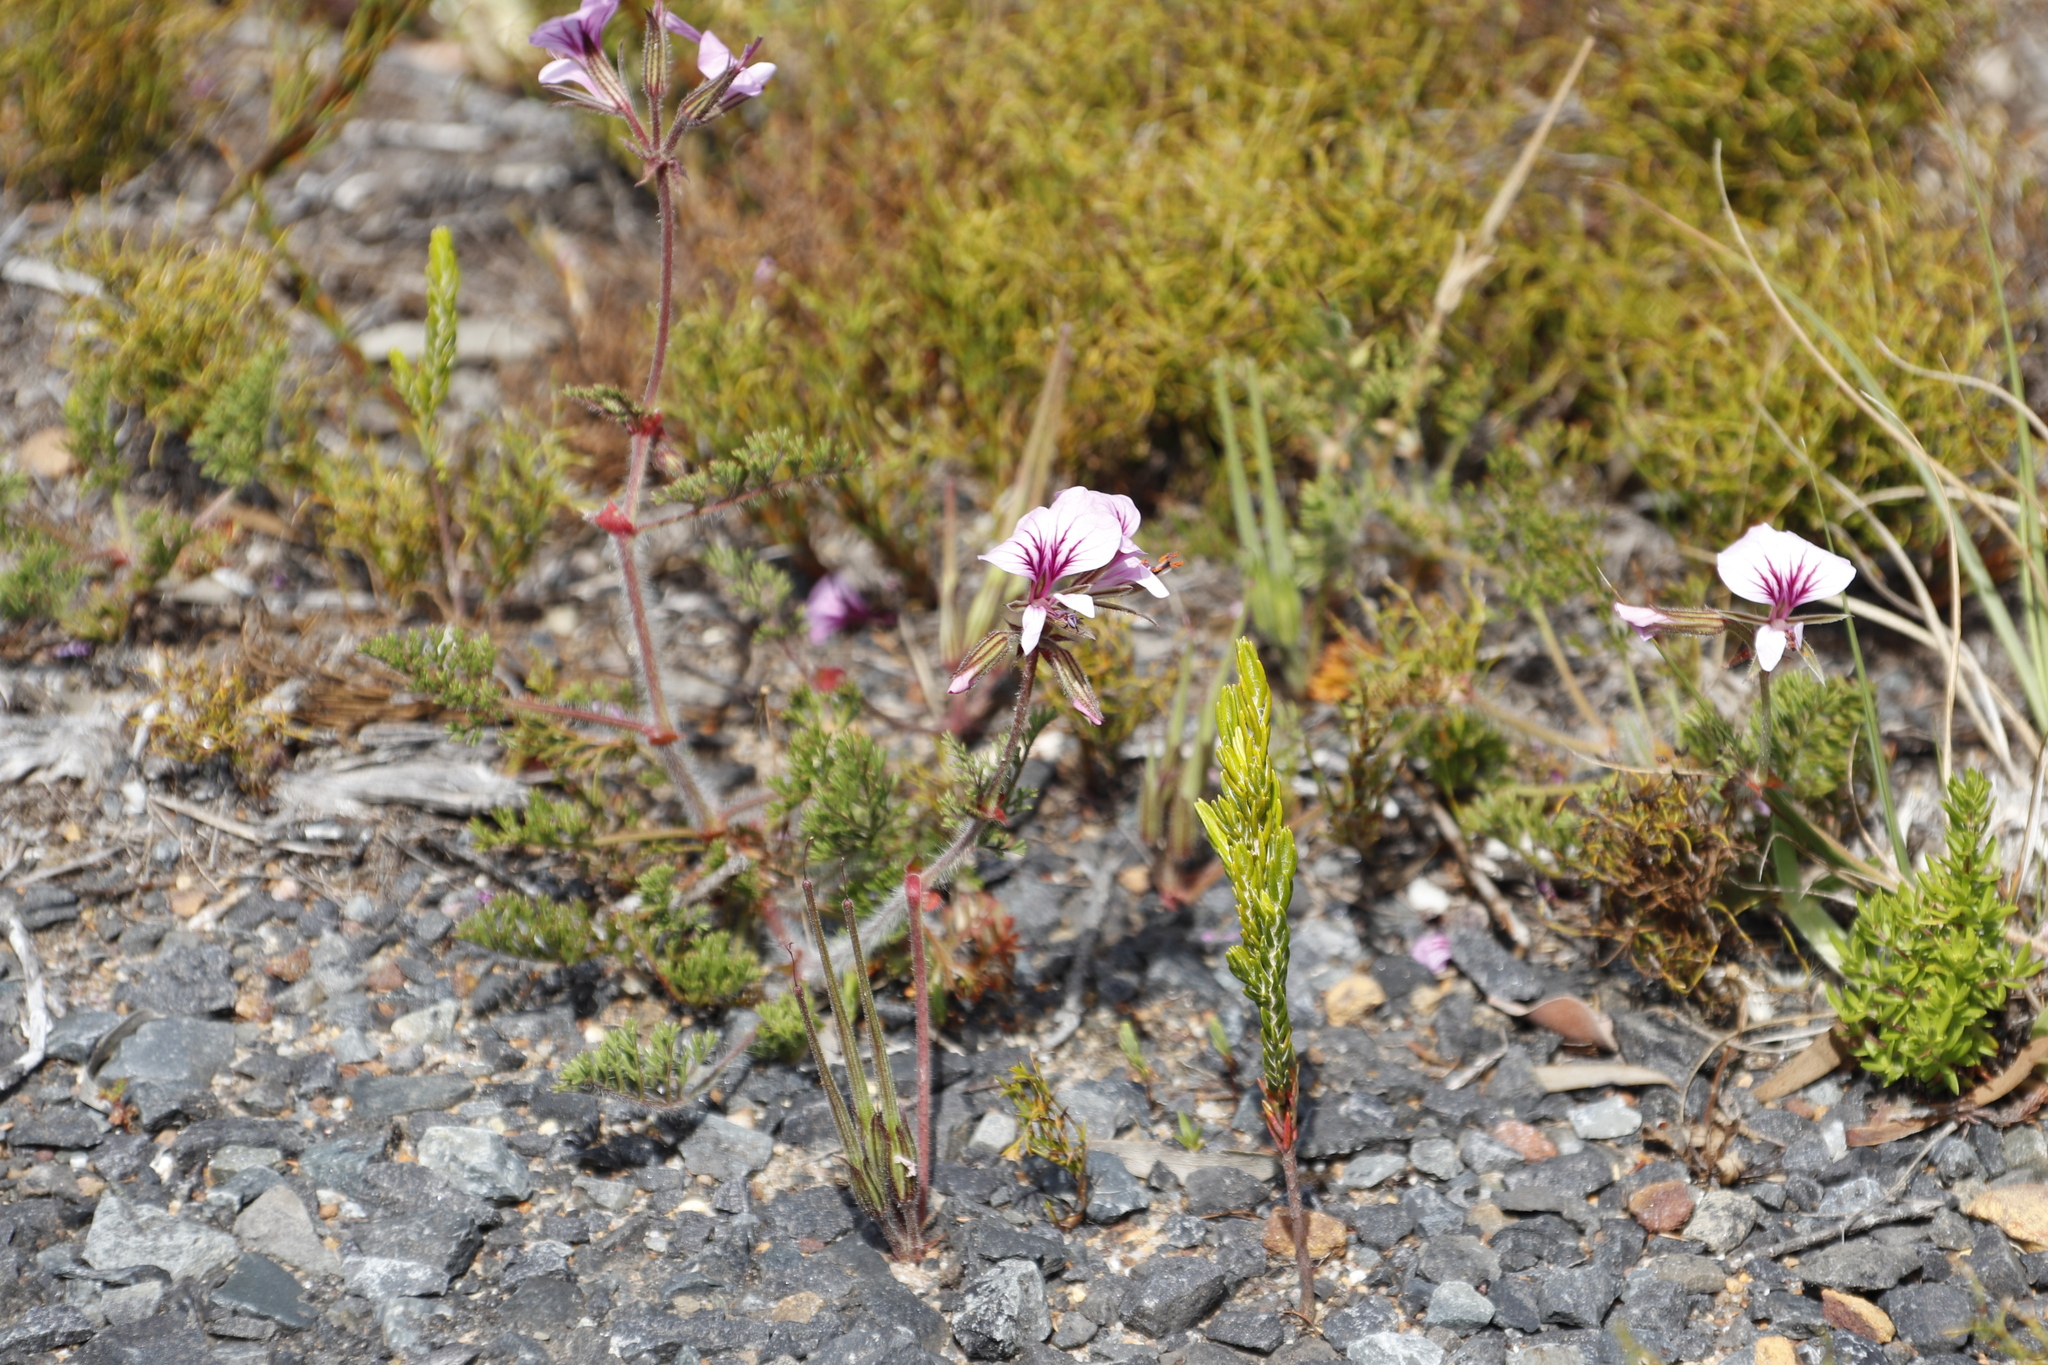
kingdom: Plantae
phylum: Tracheophyta
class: Magnoliopsida
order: Geraniales
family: Geraniaceae
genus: Pelargonium
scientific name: Pelargonium myrrhifolium
